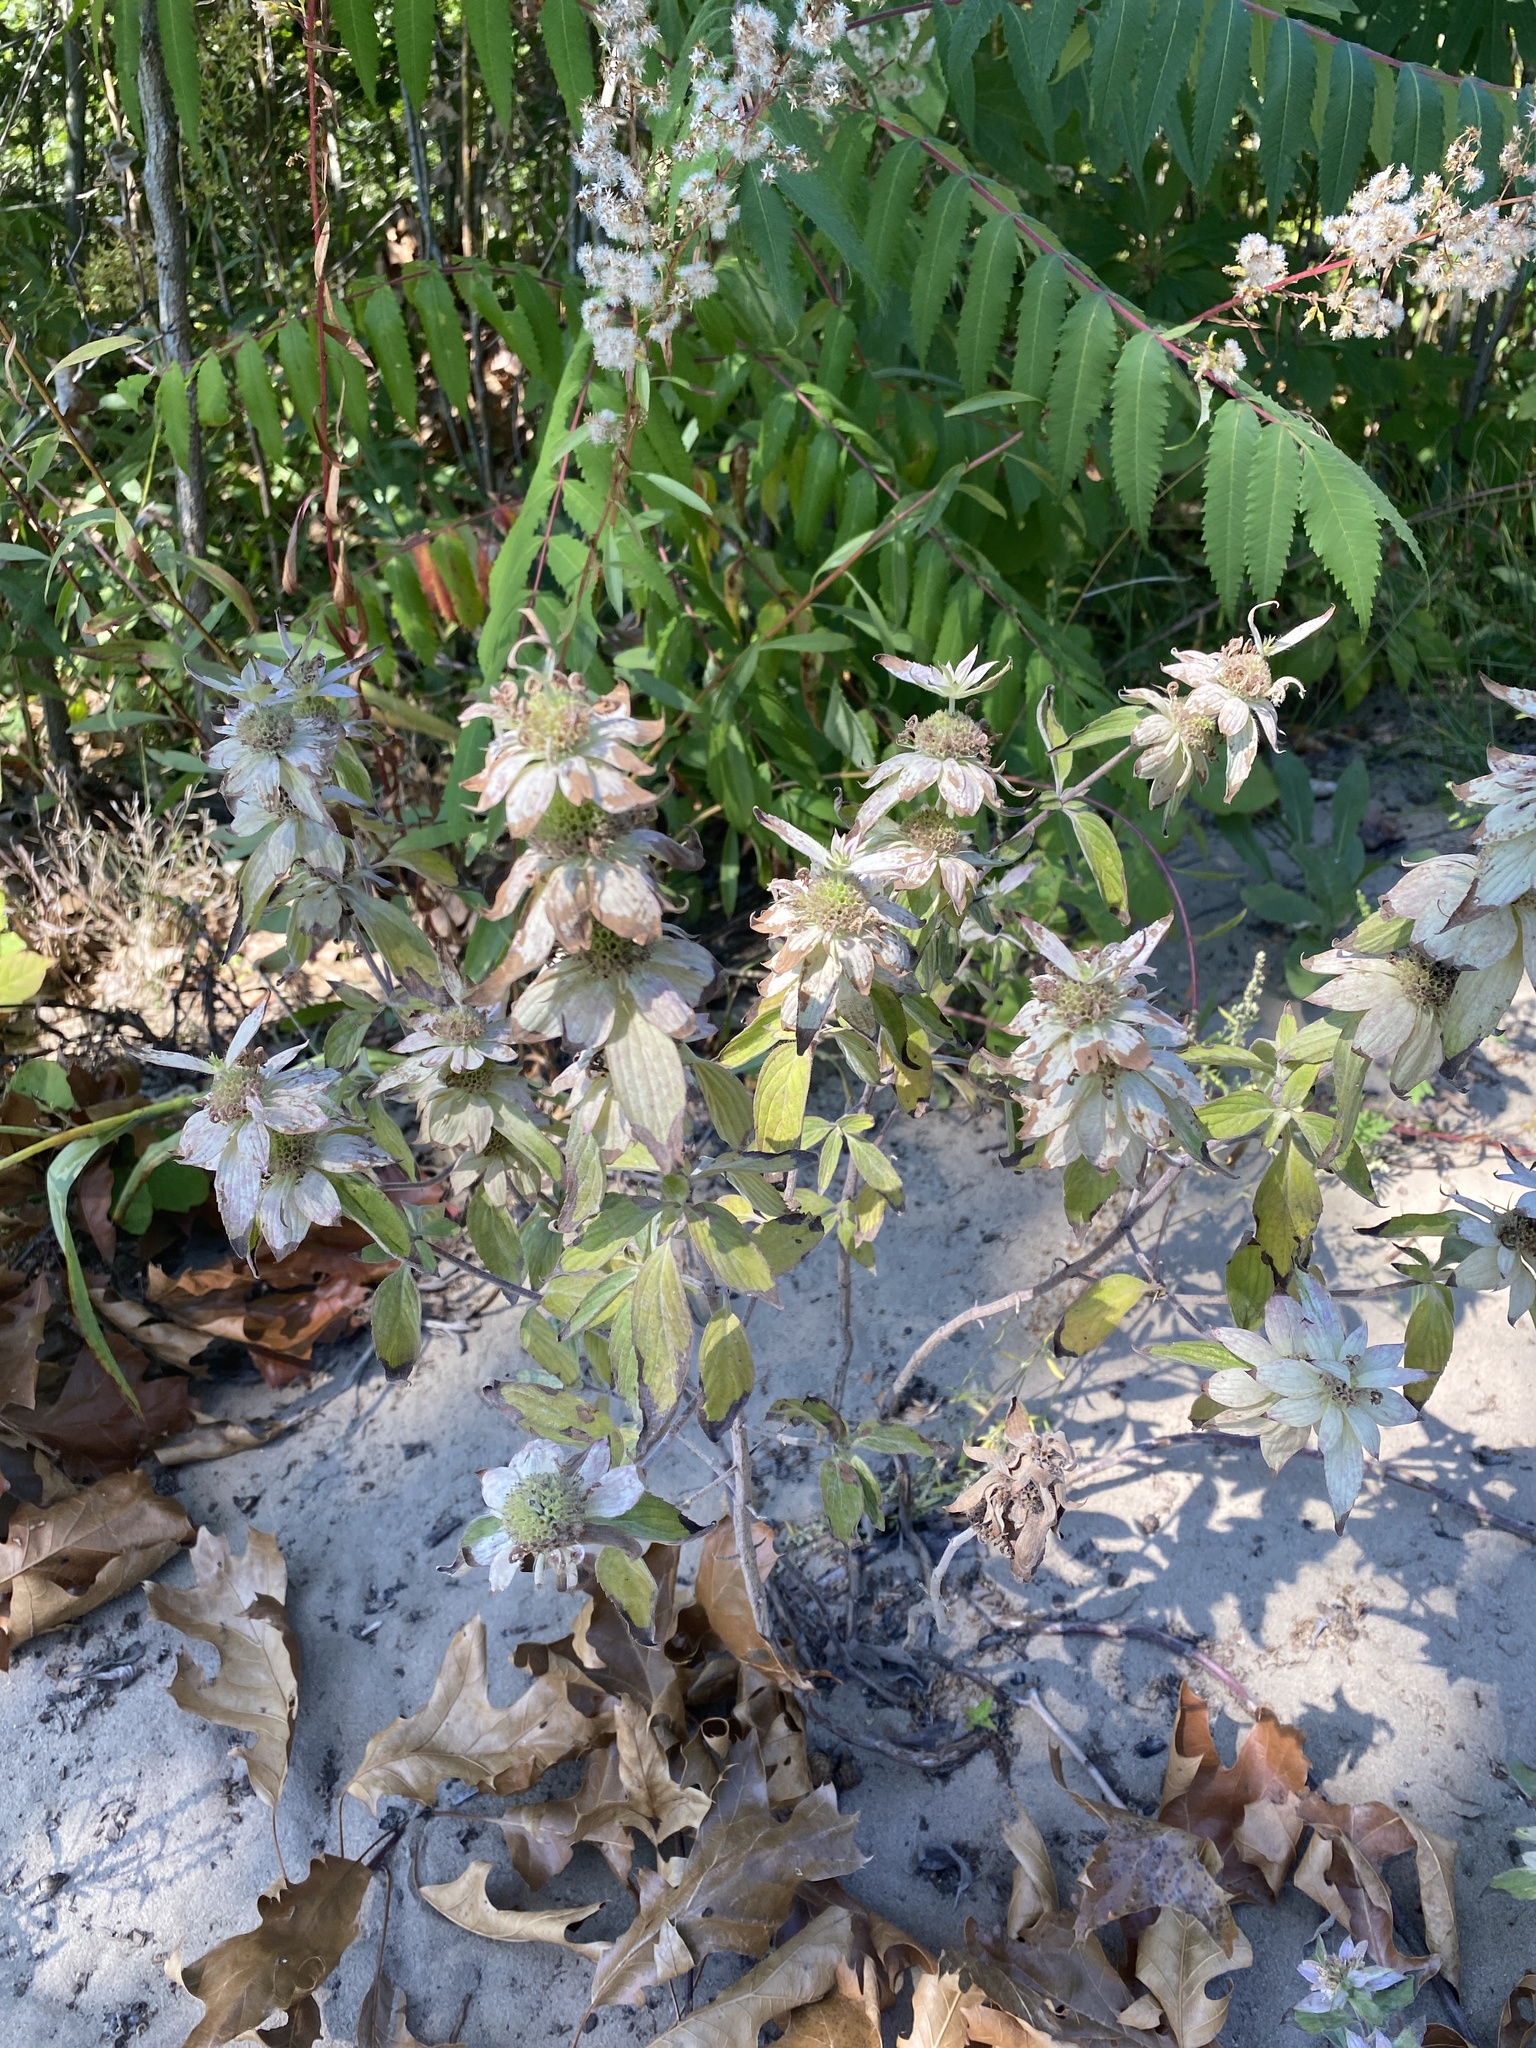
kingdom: Plantae
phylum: Tracheophyta
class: Magnoliopsida
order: Lamiales
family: Lamiaceae
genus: Monarda
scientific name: Monarda punctata
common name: Dotted monarda
